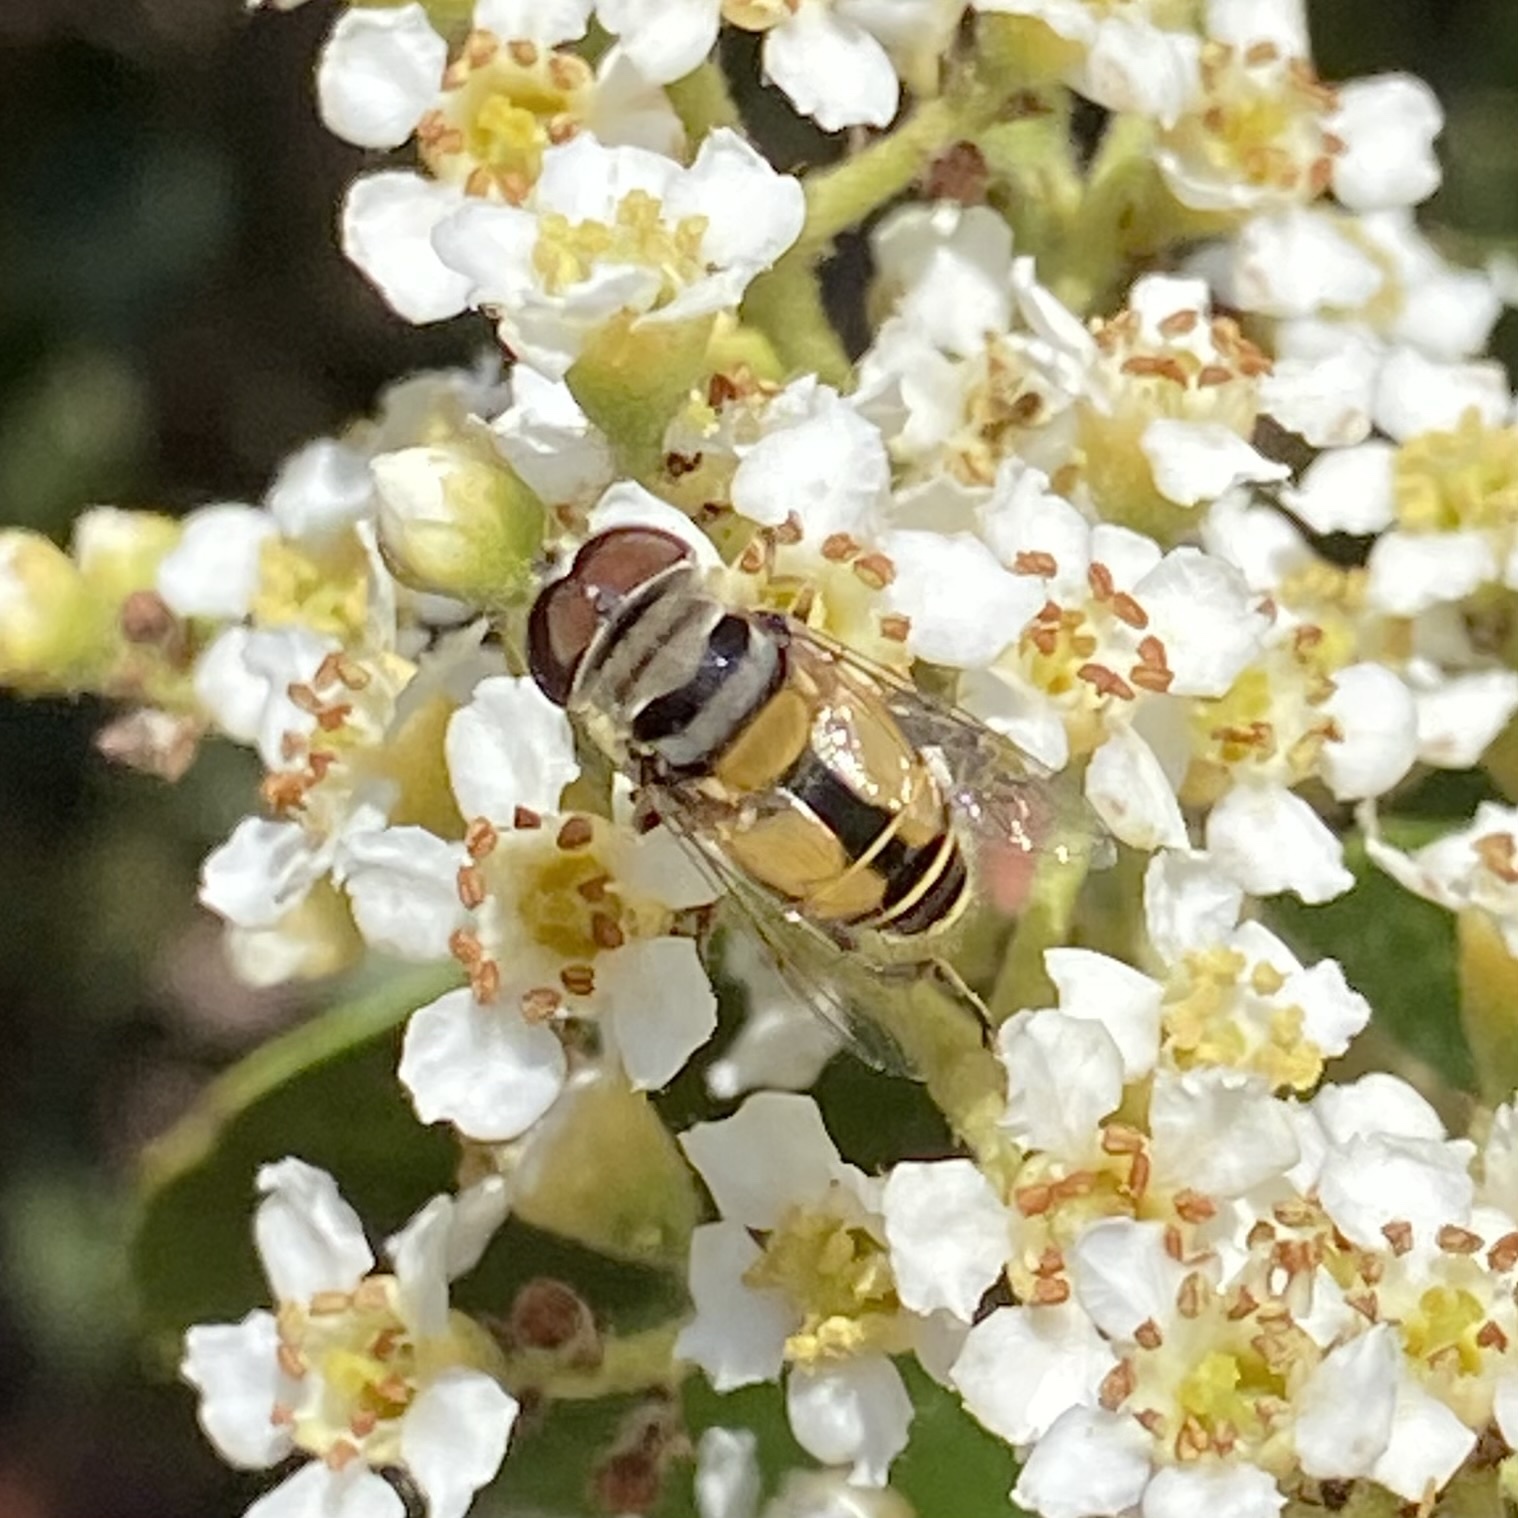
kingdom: Animalia
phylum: Arthropoda
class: Insecta
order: Diptera
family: Syrphidae
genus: Palpada
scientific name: Palpada alhambra
